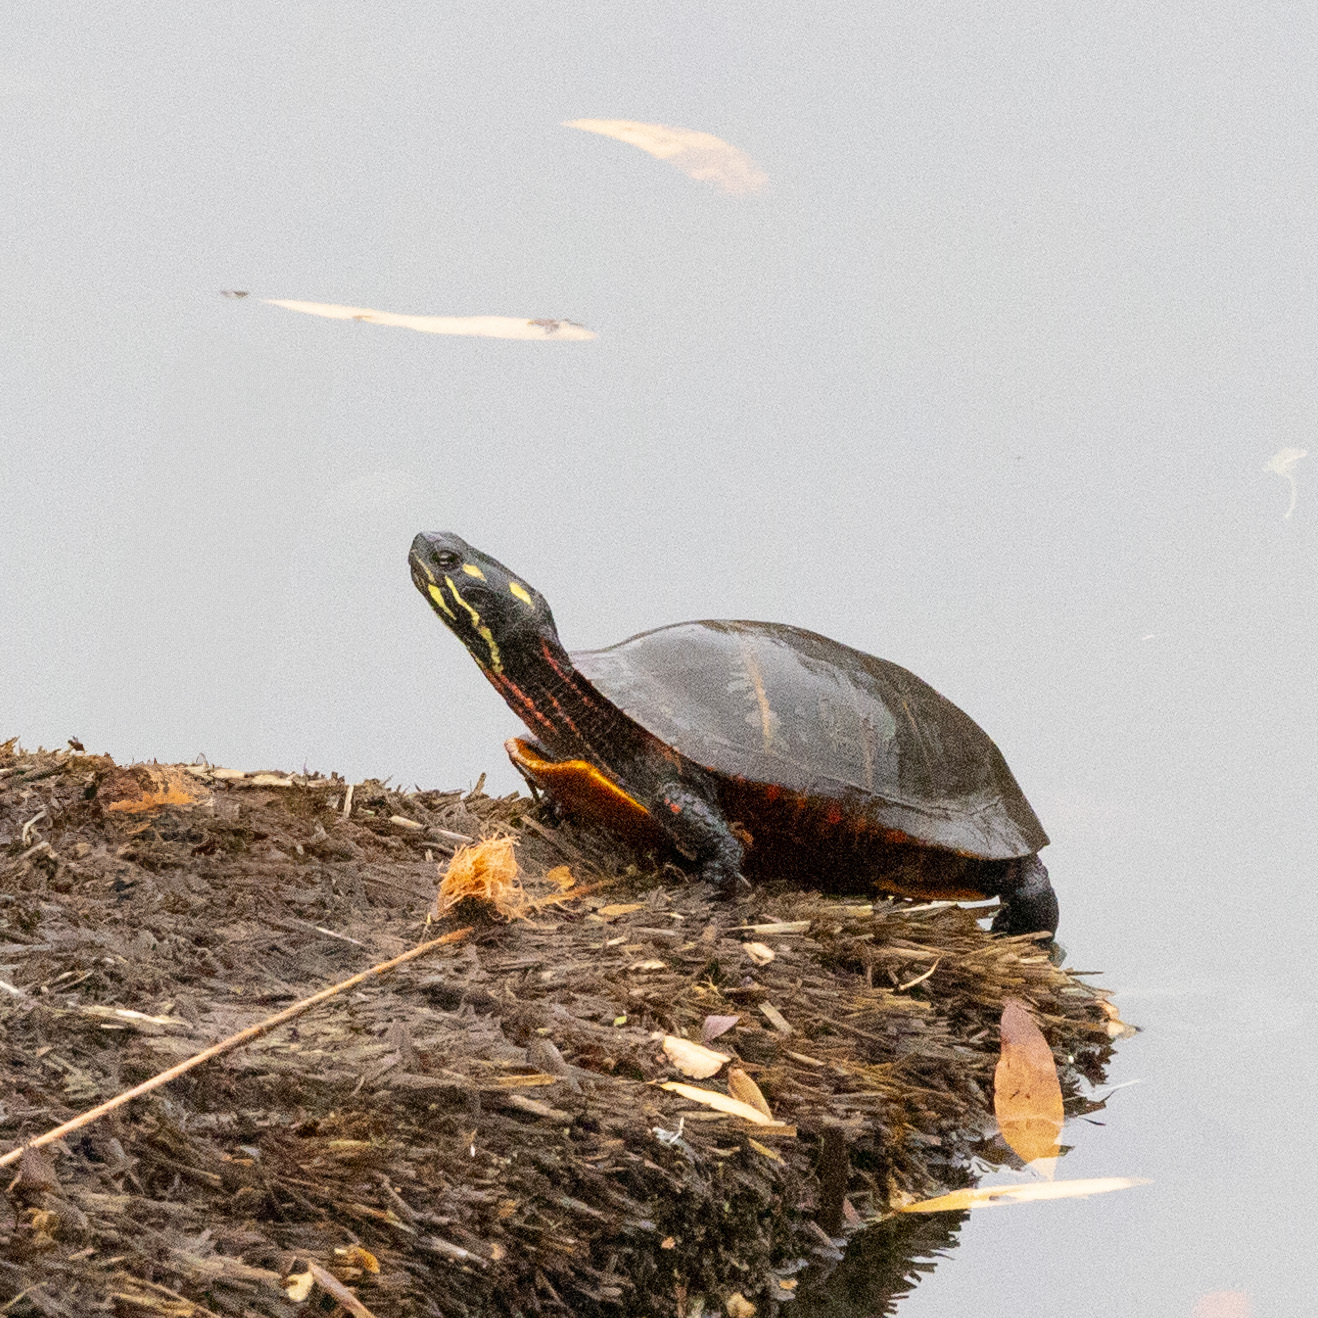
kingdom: Animalia
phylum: Chordata
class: Testudines
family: Emydidae
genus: Chrysemys
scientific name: Chrysemys picta
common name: Painted turtle
